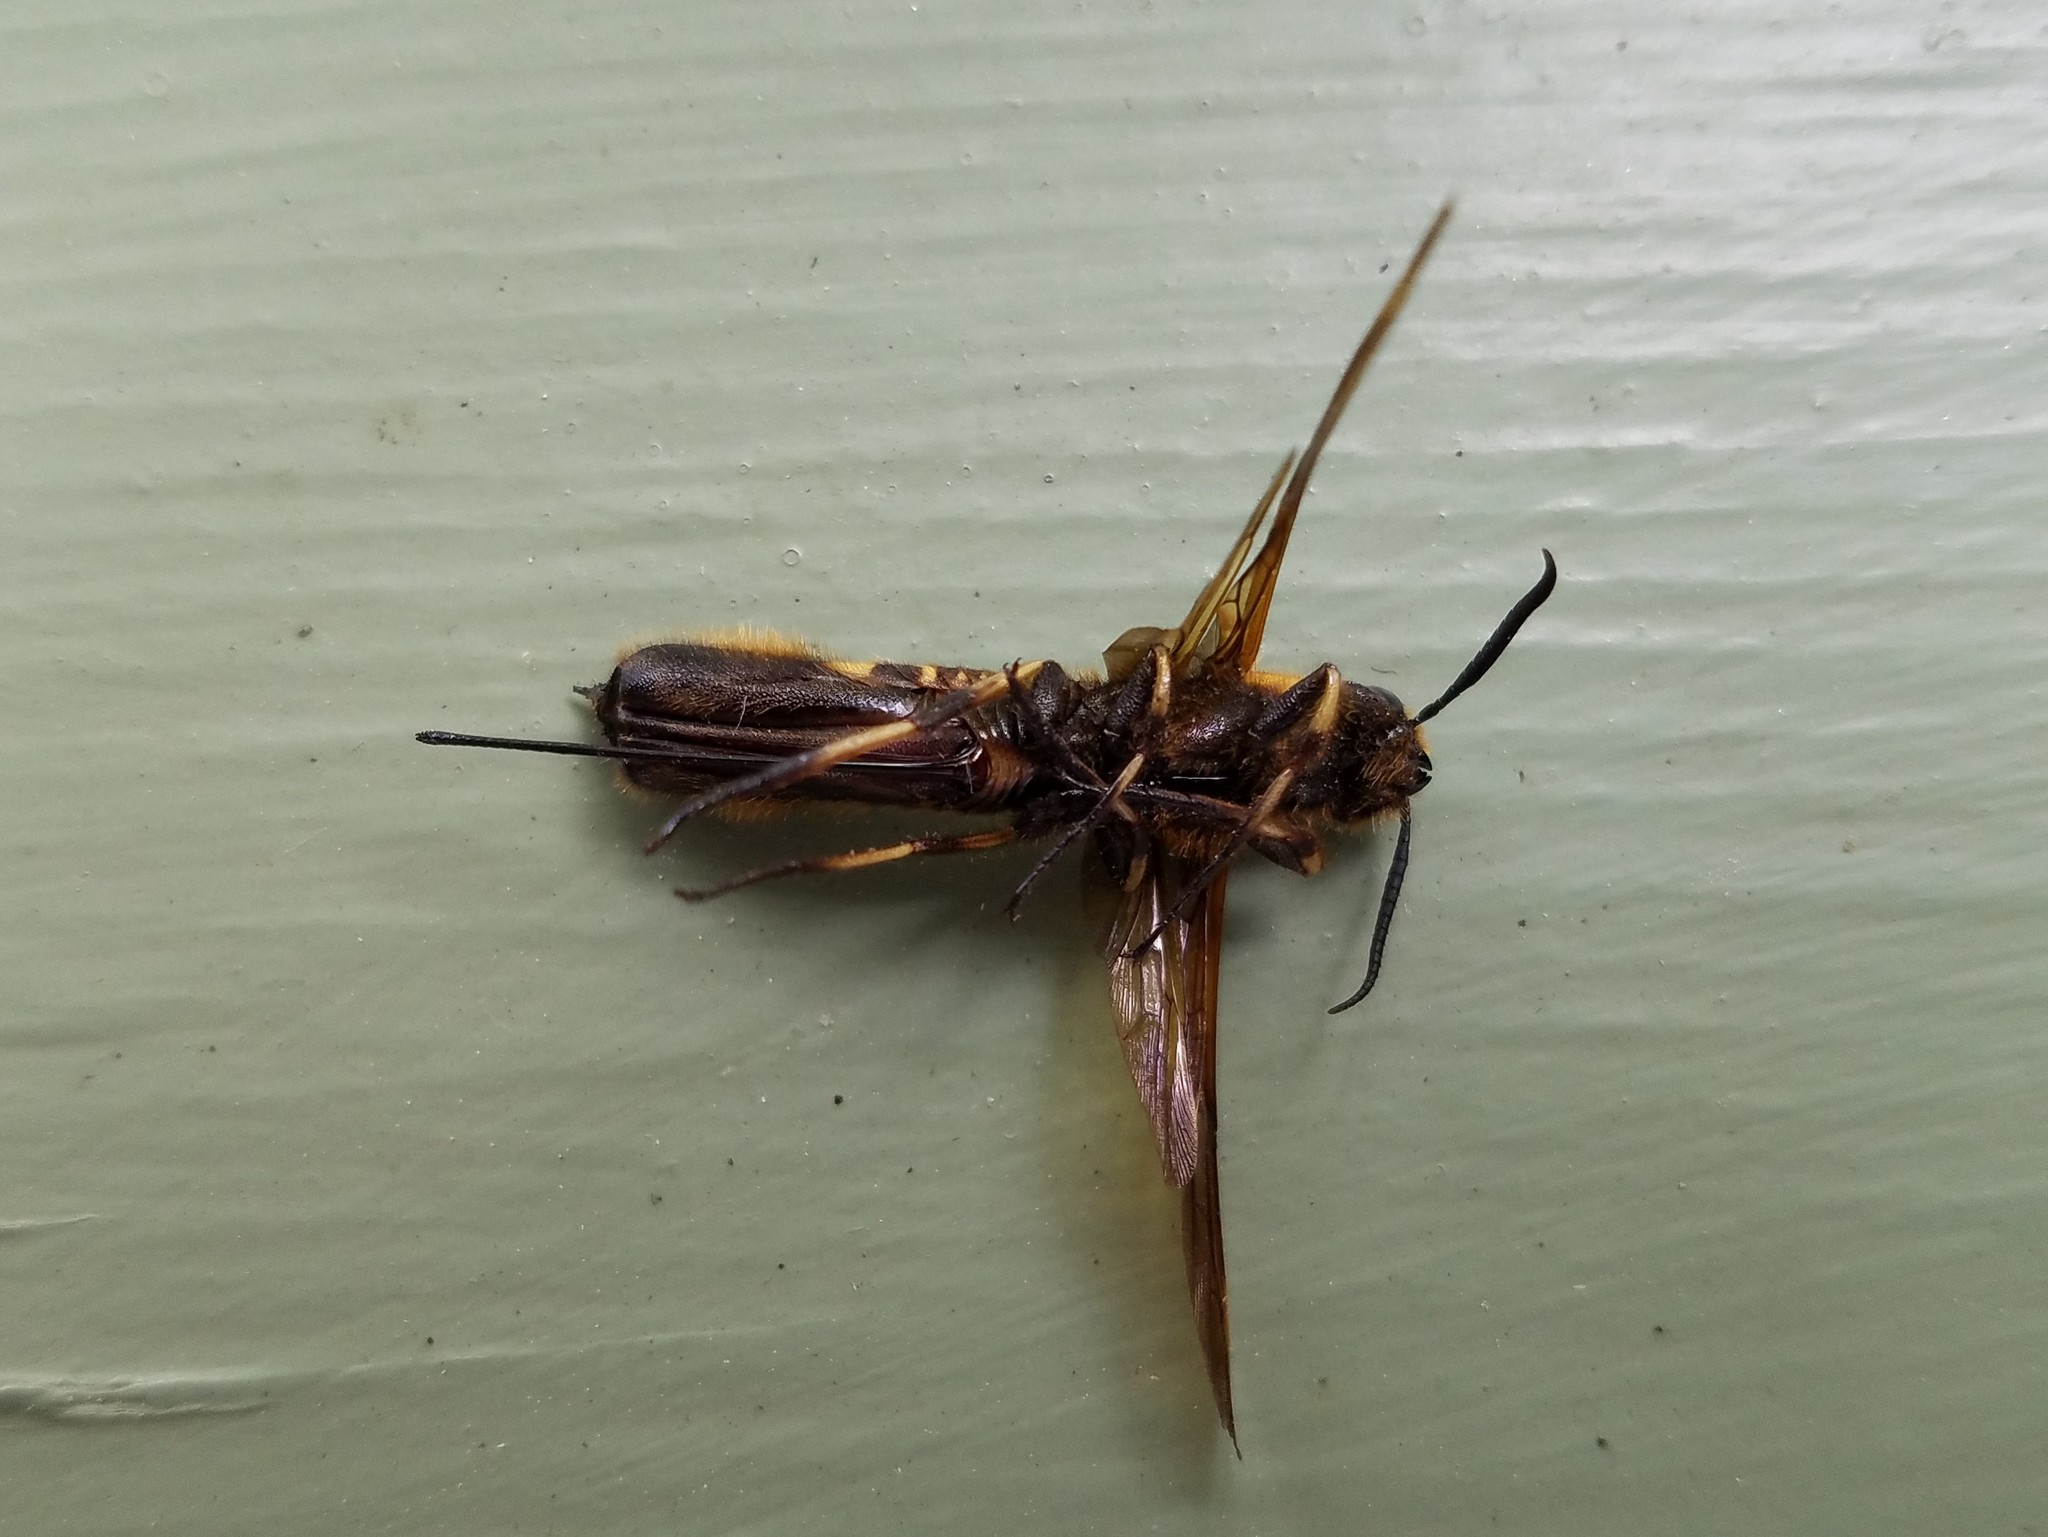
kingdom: Animalia
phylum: Arthropoda
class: Insecta
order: Hymenoptera
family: Siricidae
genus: Eriotremex
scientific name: Eriotremex formosanus
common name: Asian horntail
